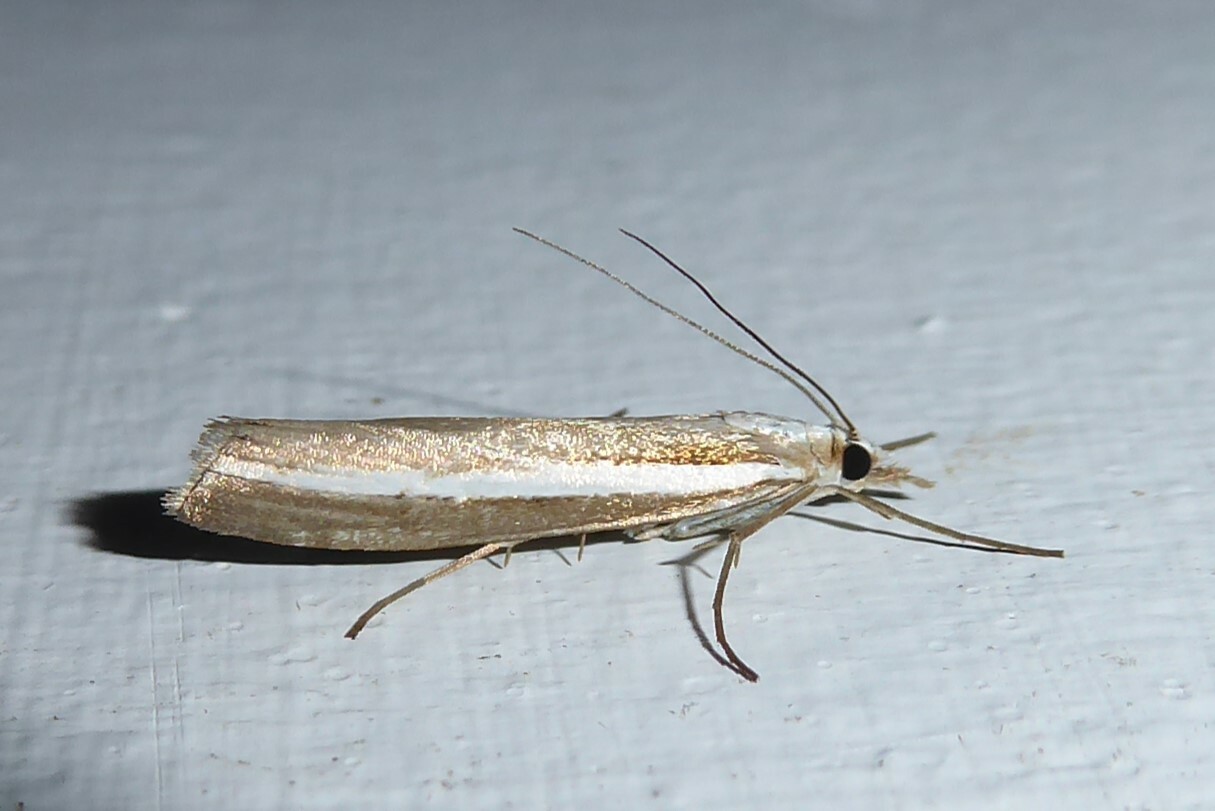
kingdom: Animalia
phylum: Arthropoda
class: Insecta
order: Lepidoptera
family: Crambidae
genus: Orocrambus
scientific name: Orocrambus vittellus
